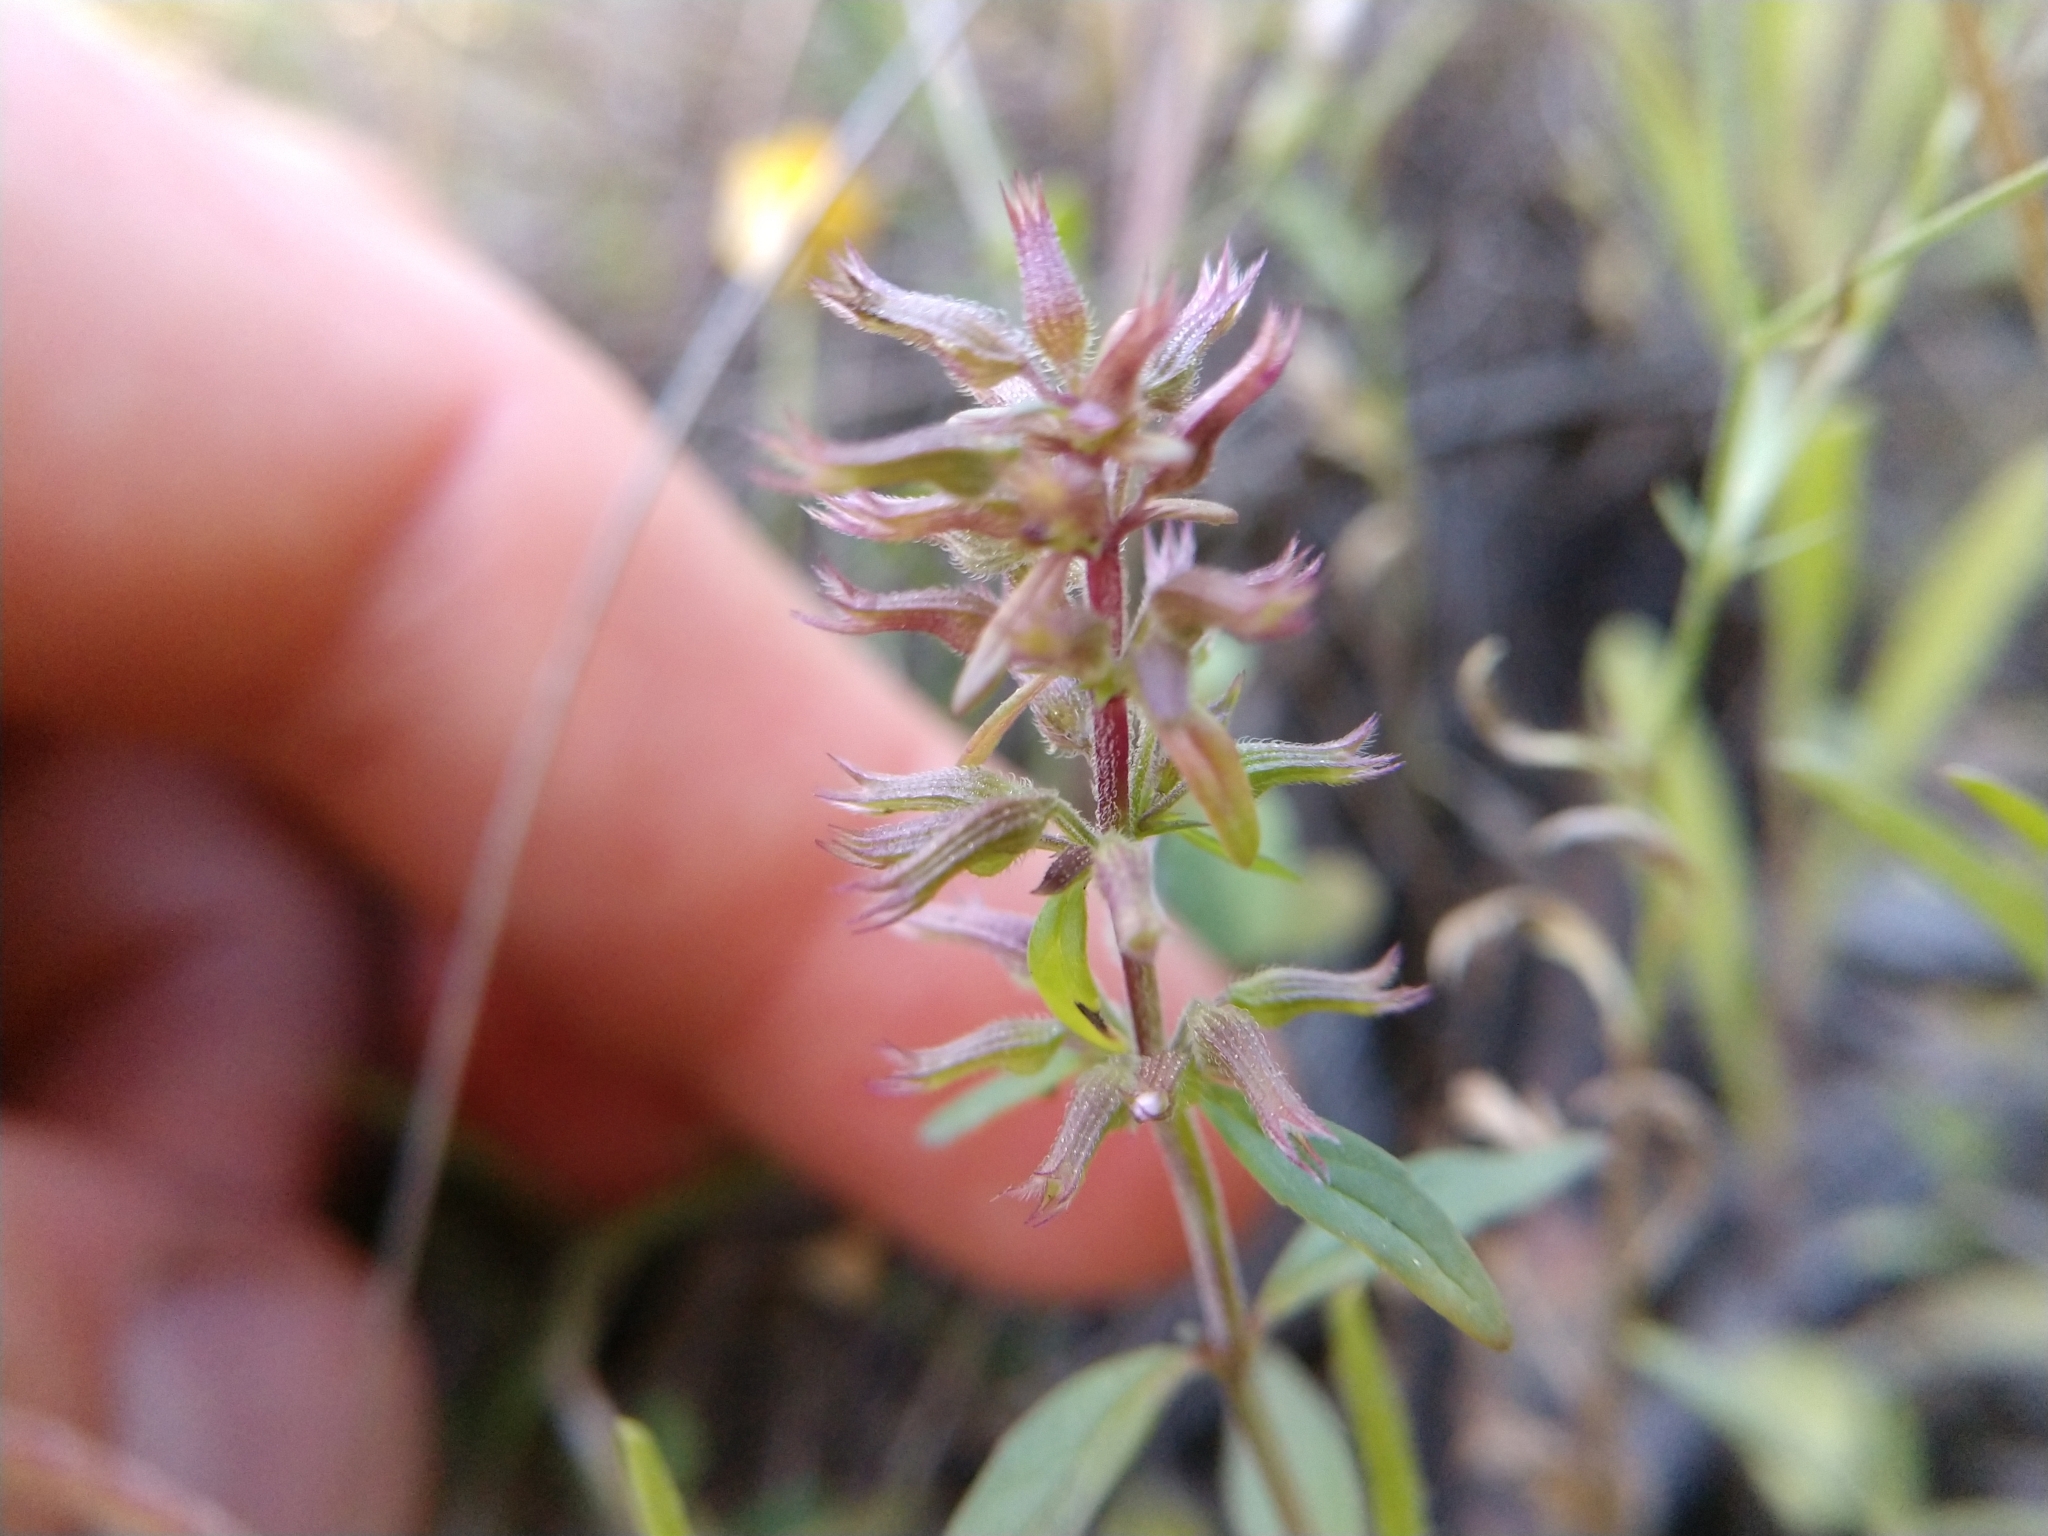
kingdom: Plantae
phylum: Tracheophyta
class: Magnoliopsida
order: Lamiales
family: Lamiaceae
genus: Hedeoma
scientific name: Hedeoma acinoides
